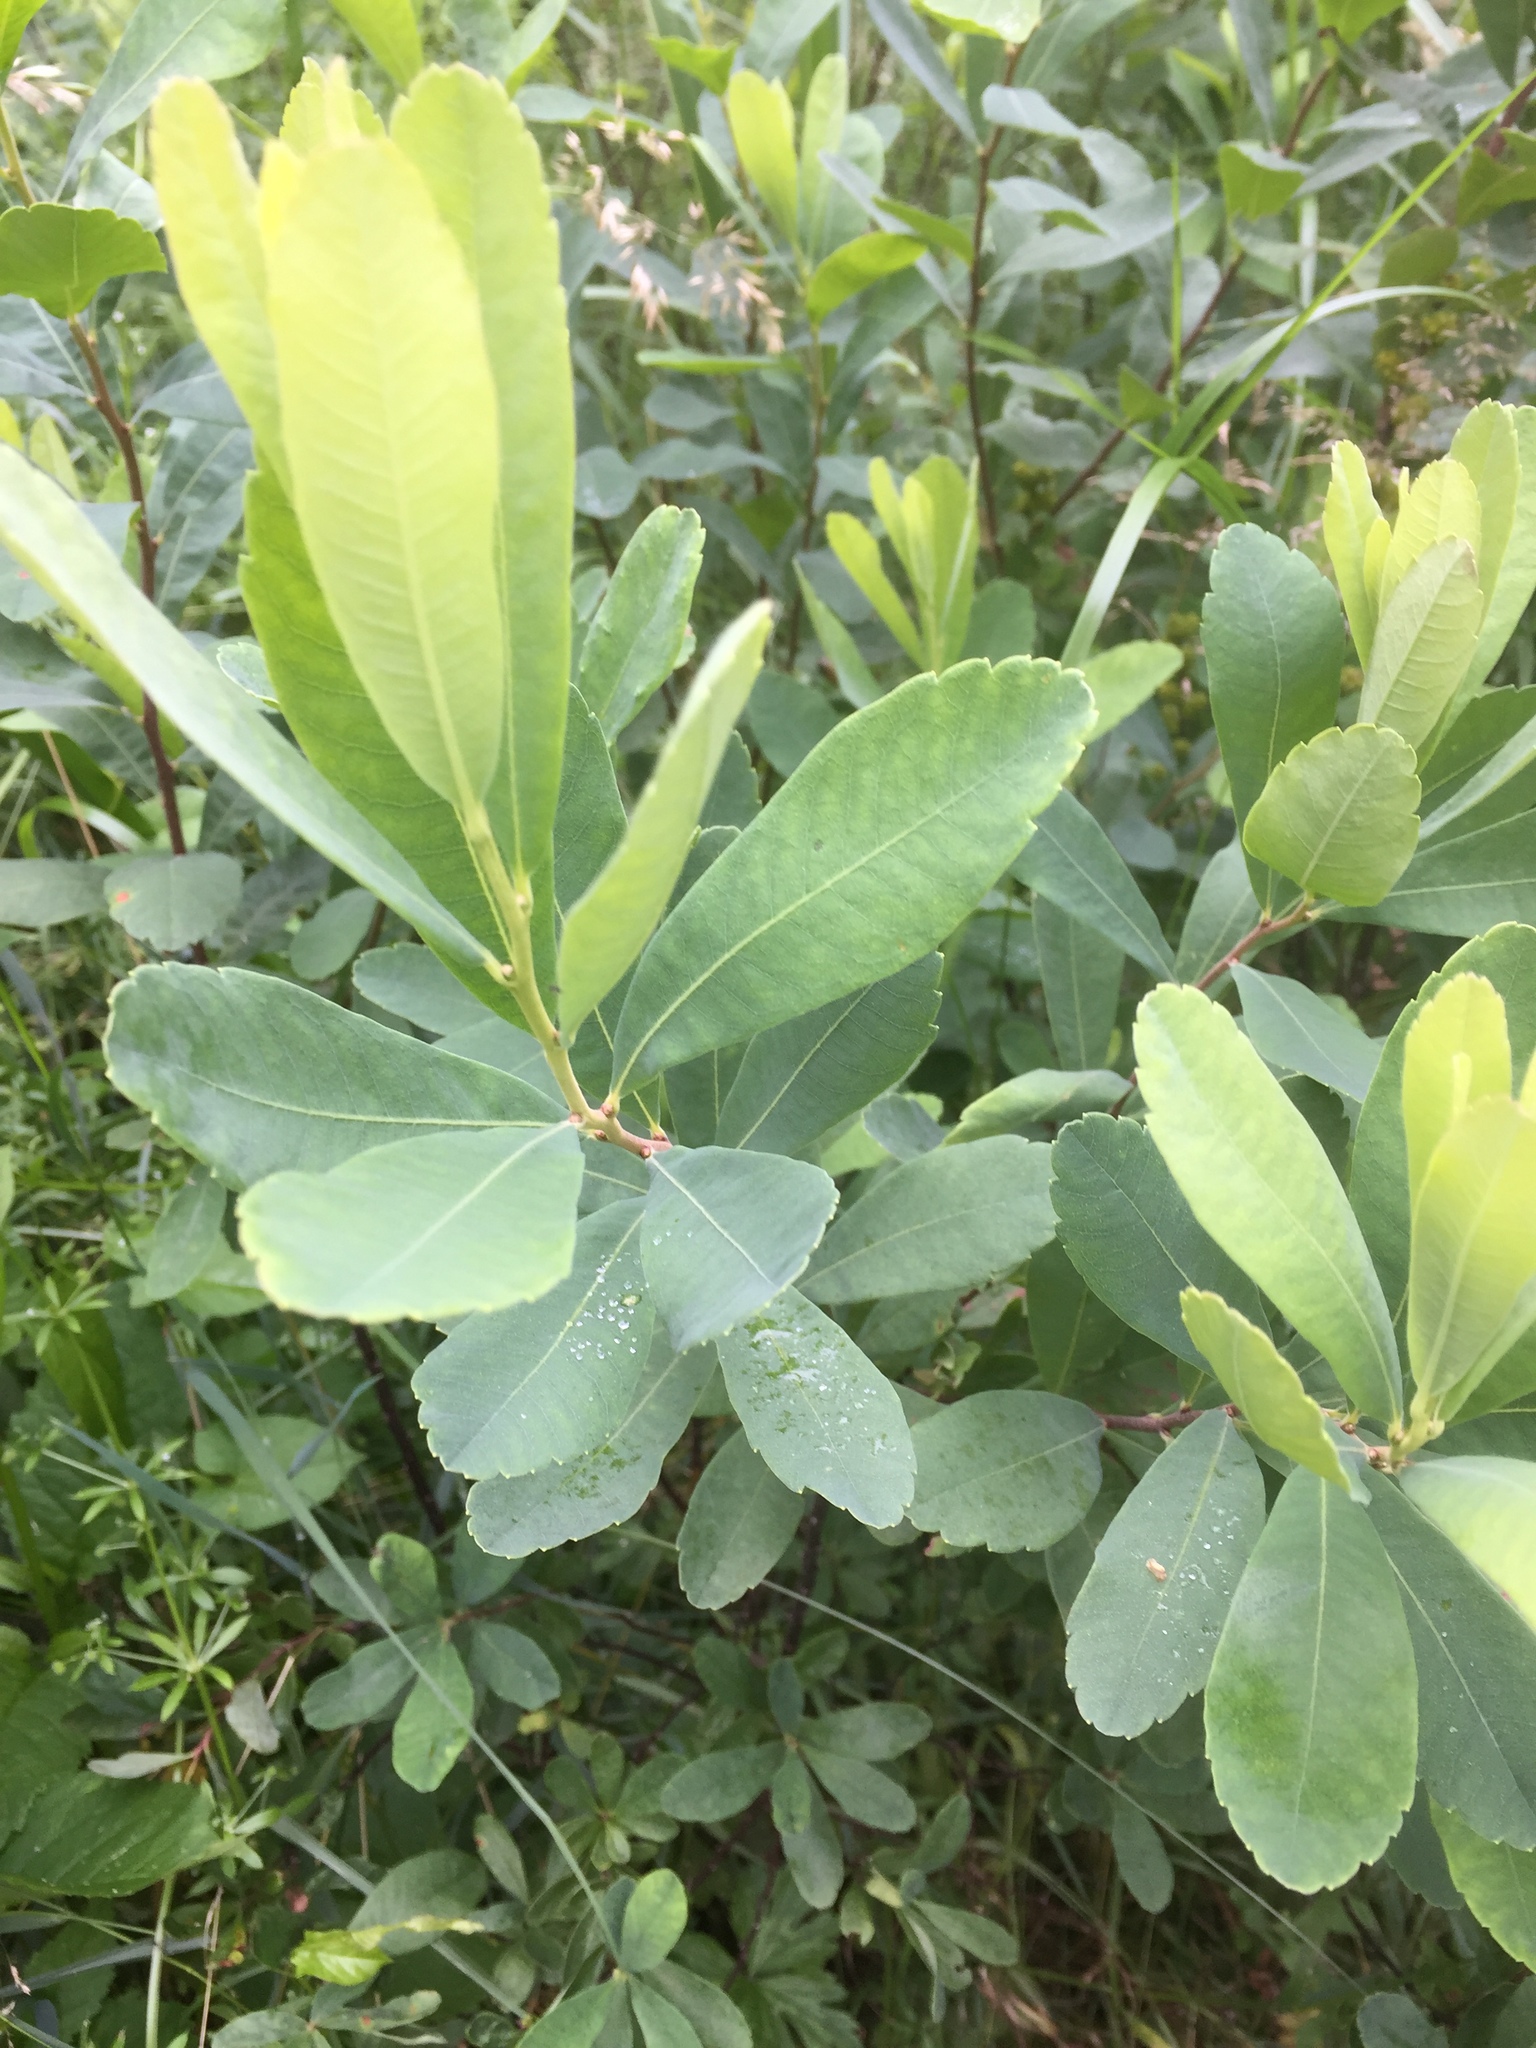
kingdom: Plantae
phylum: Tracheophyta
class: Magnoliopsida
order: Fagales
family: Myricaceae
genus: Myrica
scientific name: Myrica gale
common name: Sweet gale
